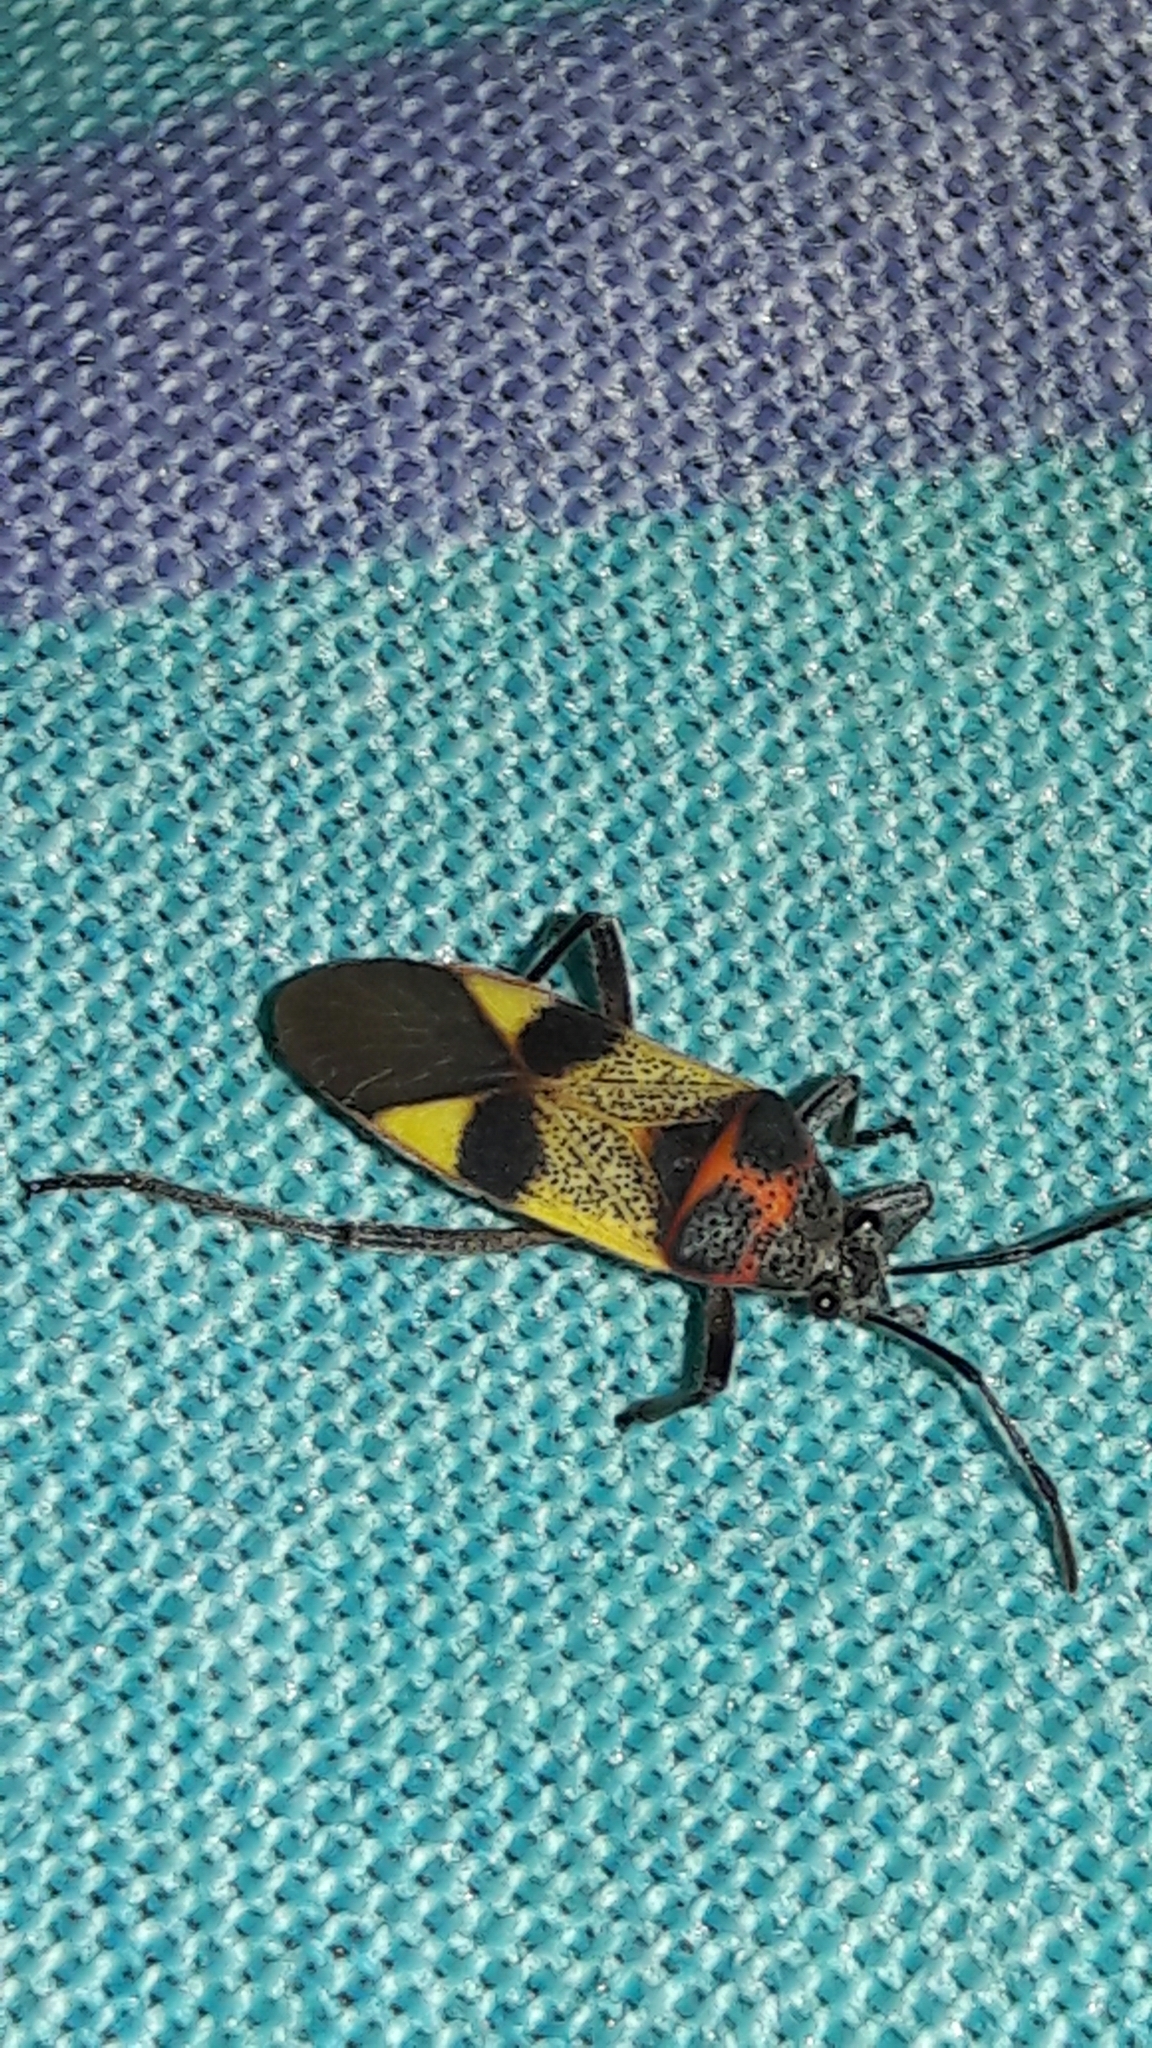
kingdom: Animalia
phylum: Arthropoda
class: Insecta
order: Hemiptera
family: Largidae
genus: Largus
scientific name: Largus ceblini
